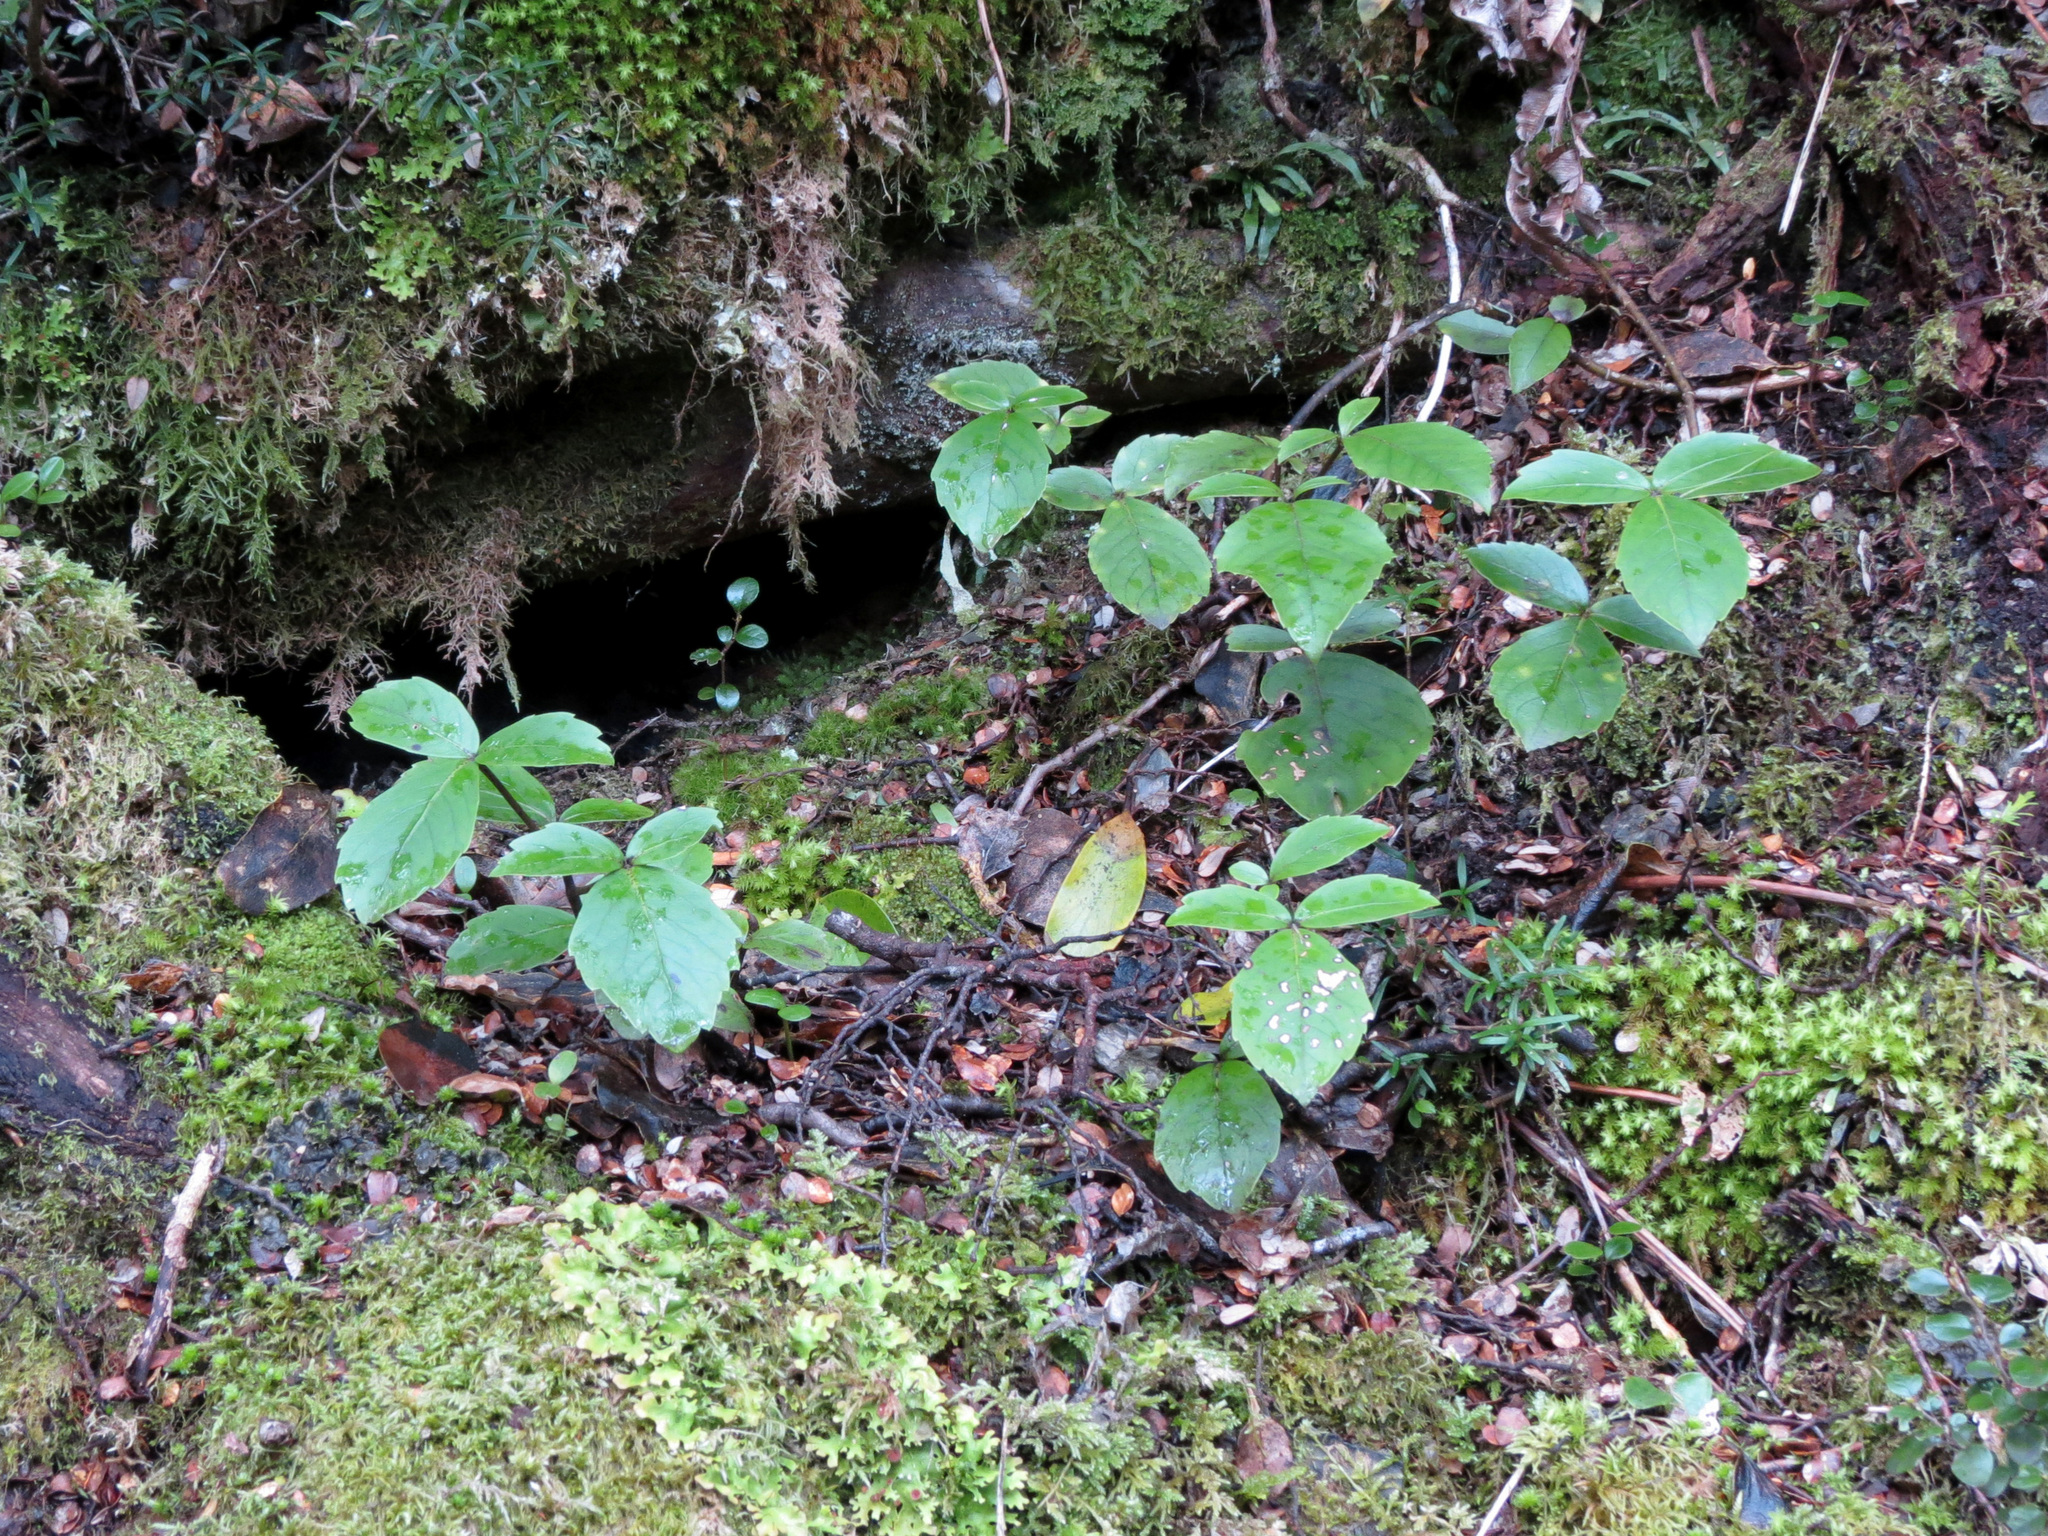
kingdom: Plantae
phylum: Tracheophyta
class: Magnoliopsida
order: Apiales
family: Araliaceae
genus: Neopanax
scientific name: Neopanax colensoi
